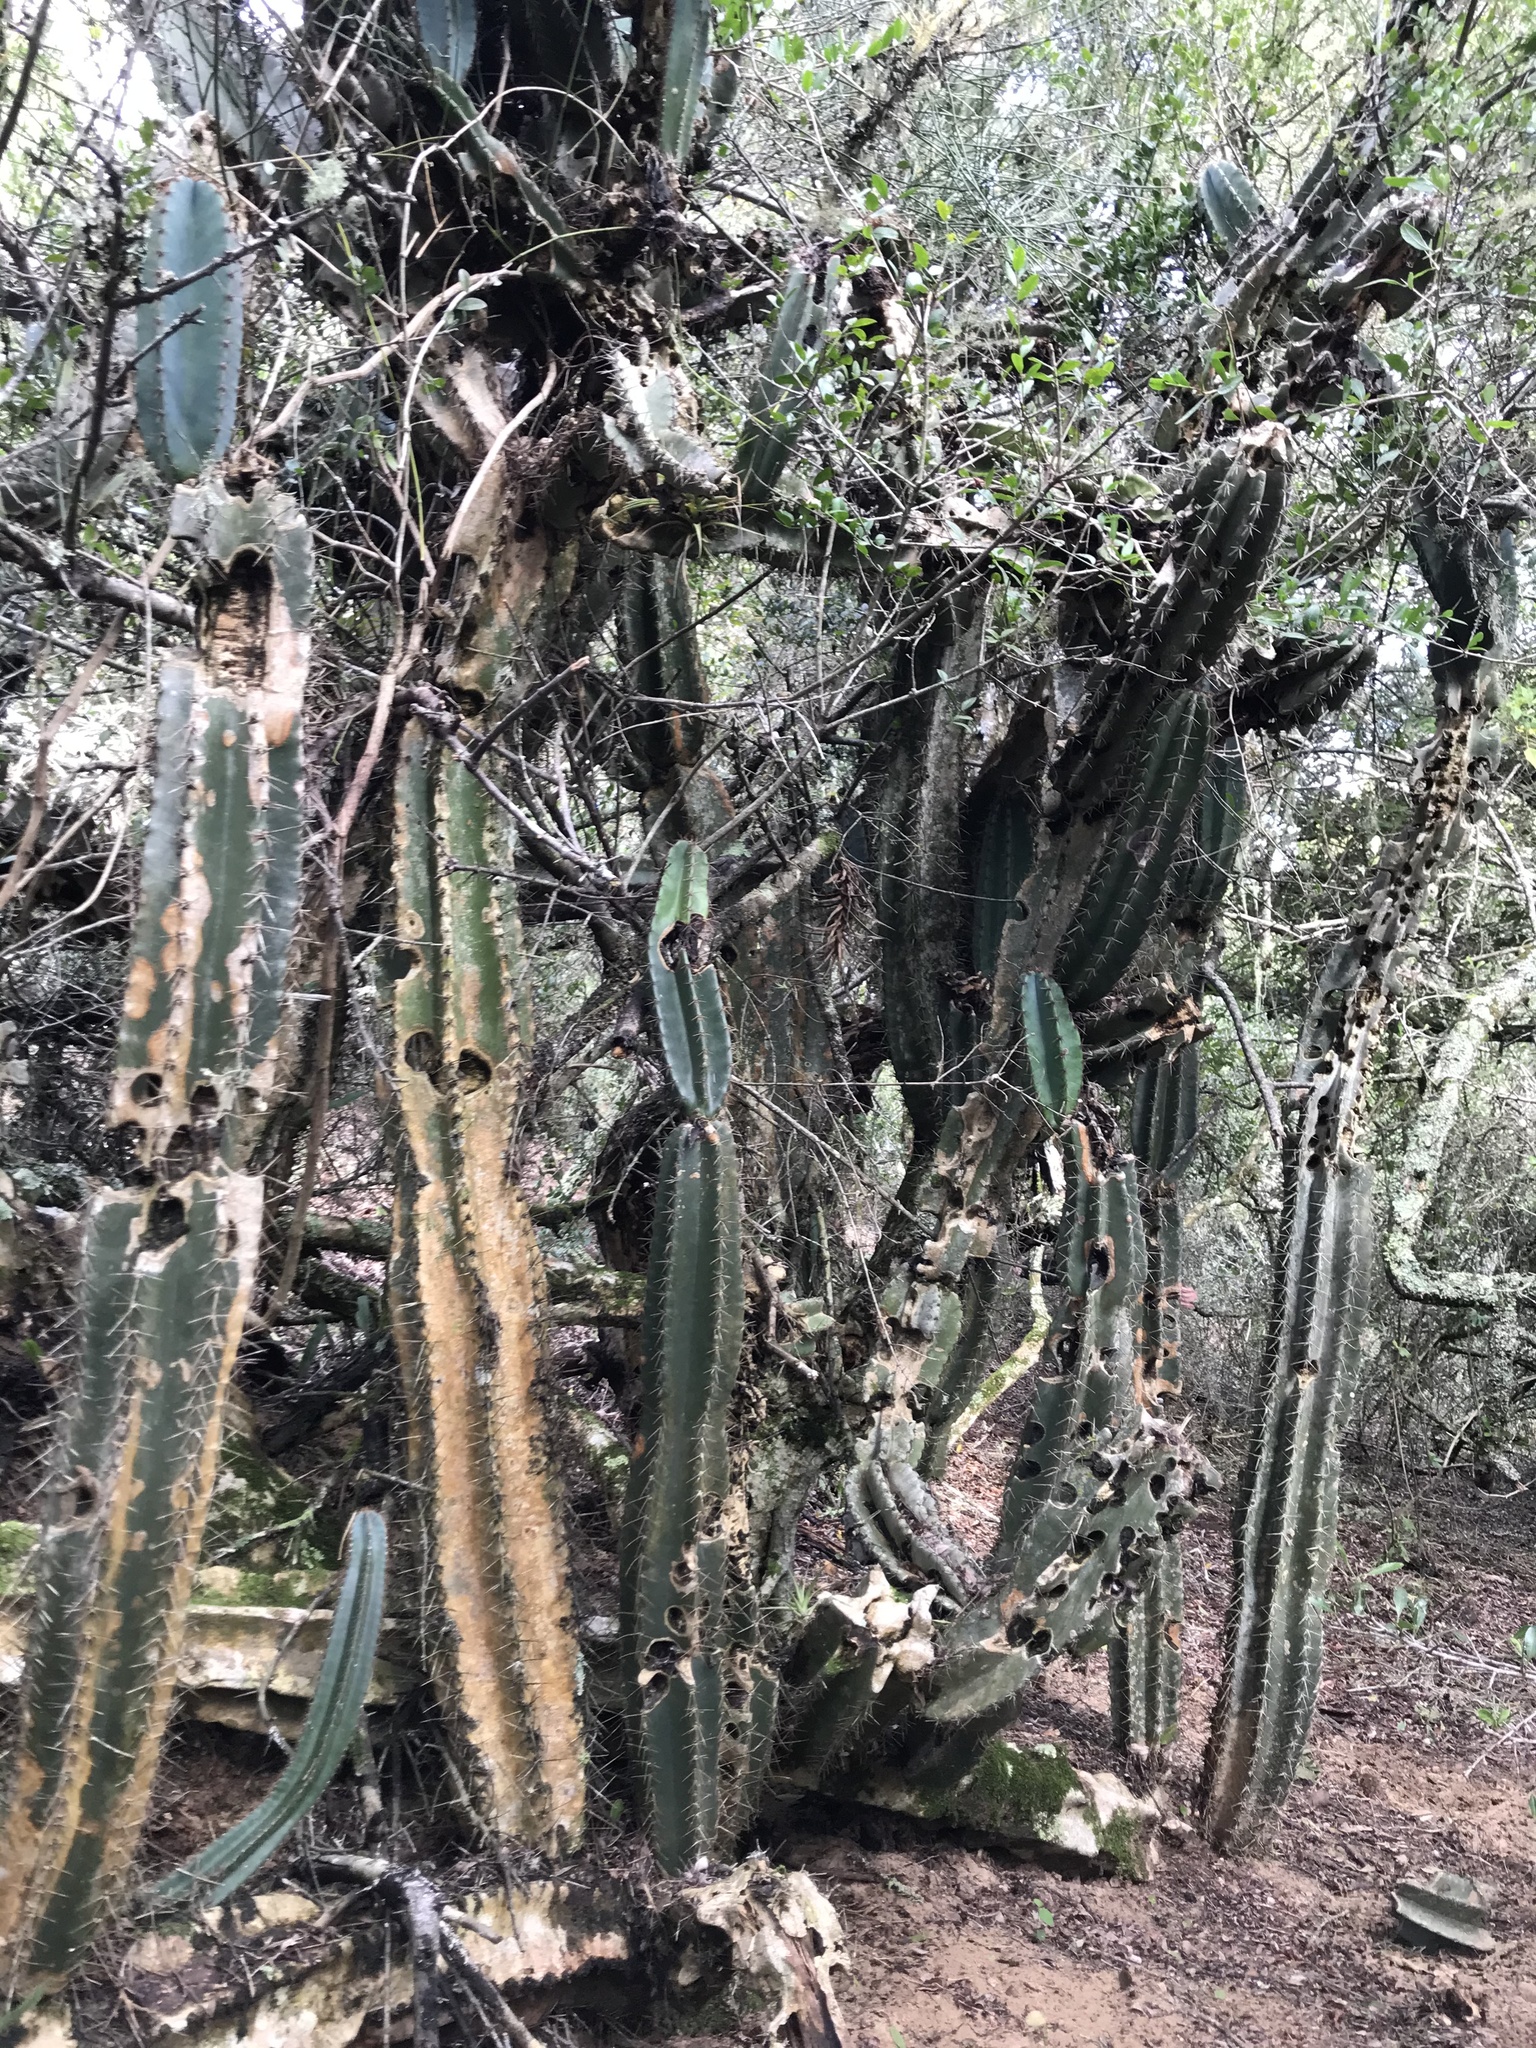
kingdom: Plantae
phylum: Tracheophyta
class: Magnoliopsida
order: Caryophyllales
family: Cactaceae
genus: Cereus
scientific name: Cereus hildmannianus
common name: Hedge cactus
